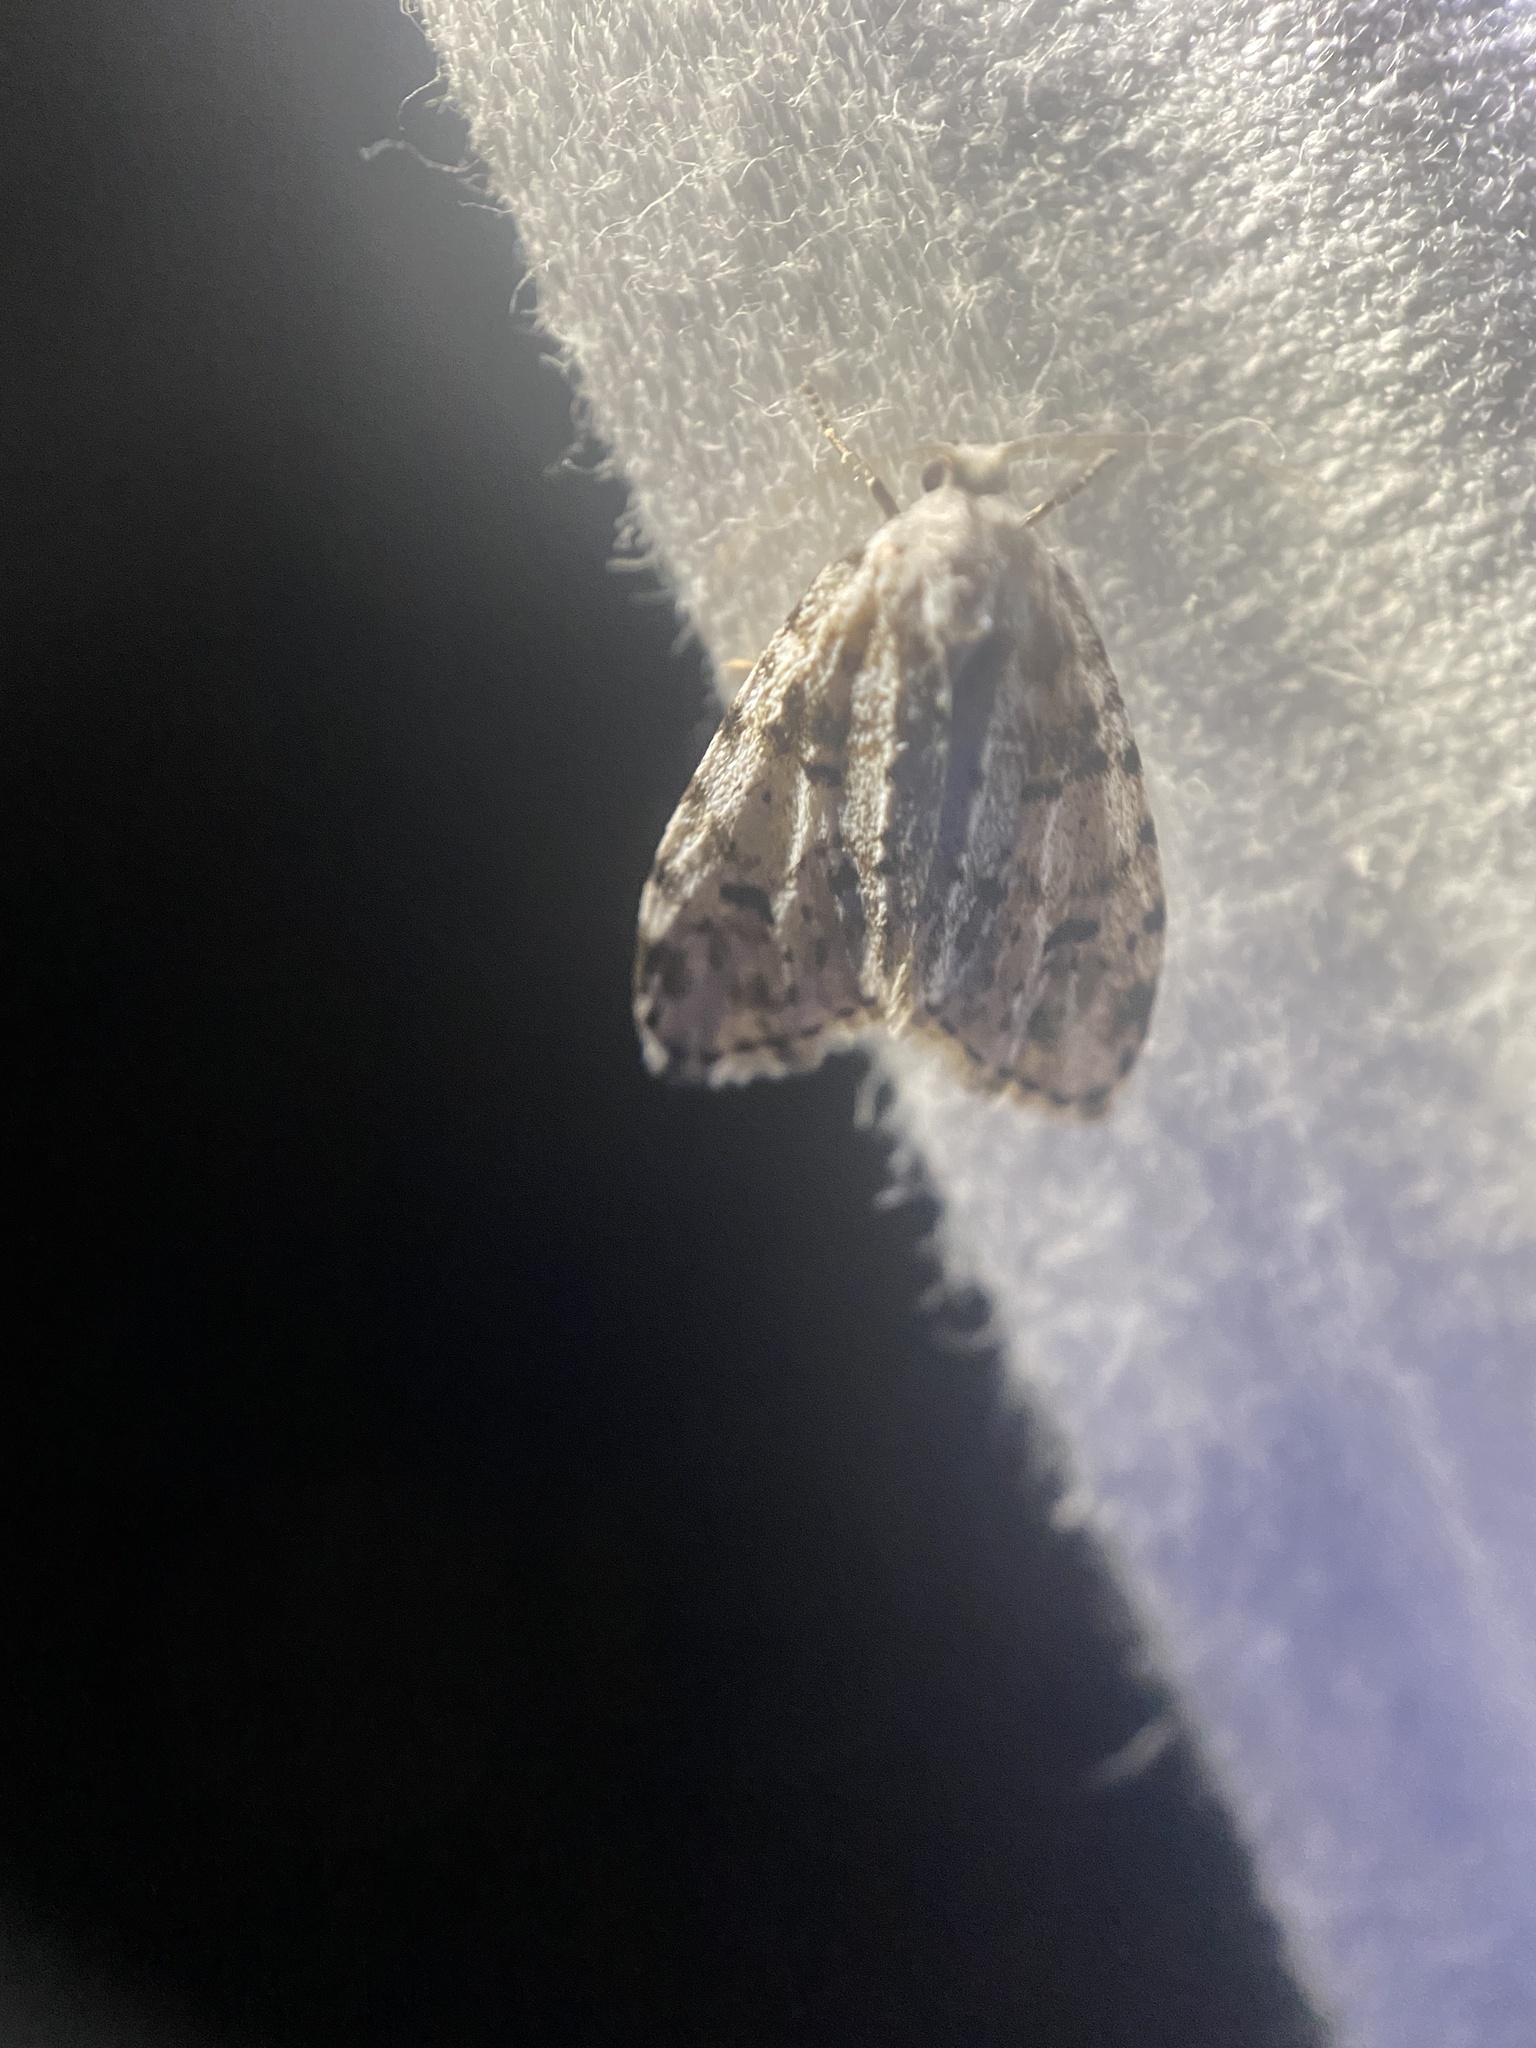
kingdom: Animalia
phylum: Arthropoda
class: Insecta
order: Lepidoptera
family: Erebidae
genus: Clemensia
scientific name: Clemensia albata
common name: Little white lichen moth
